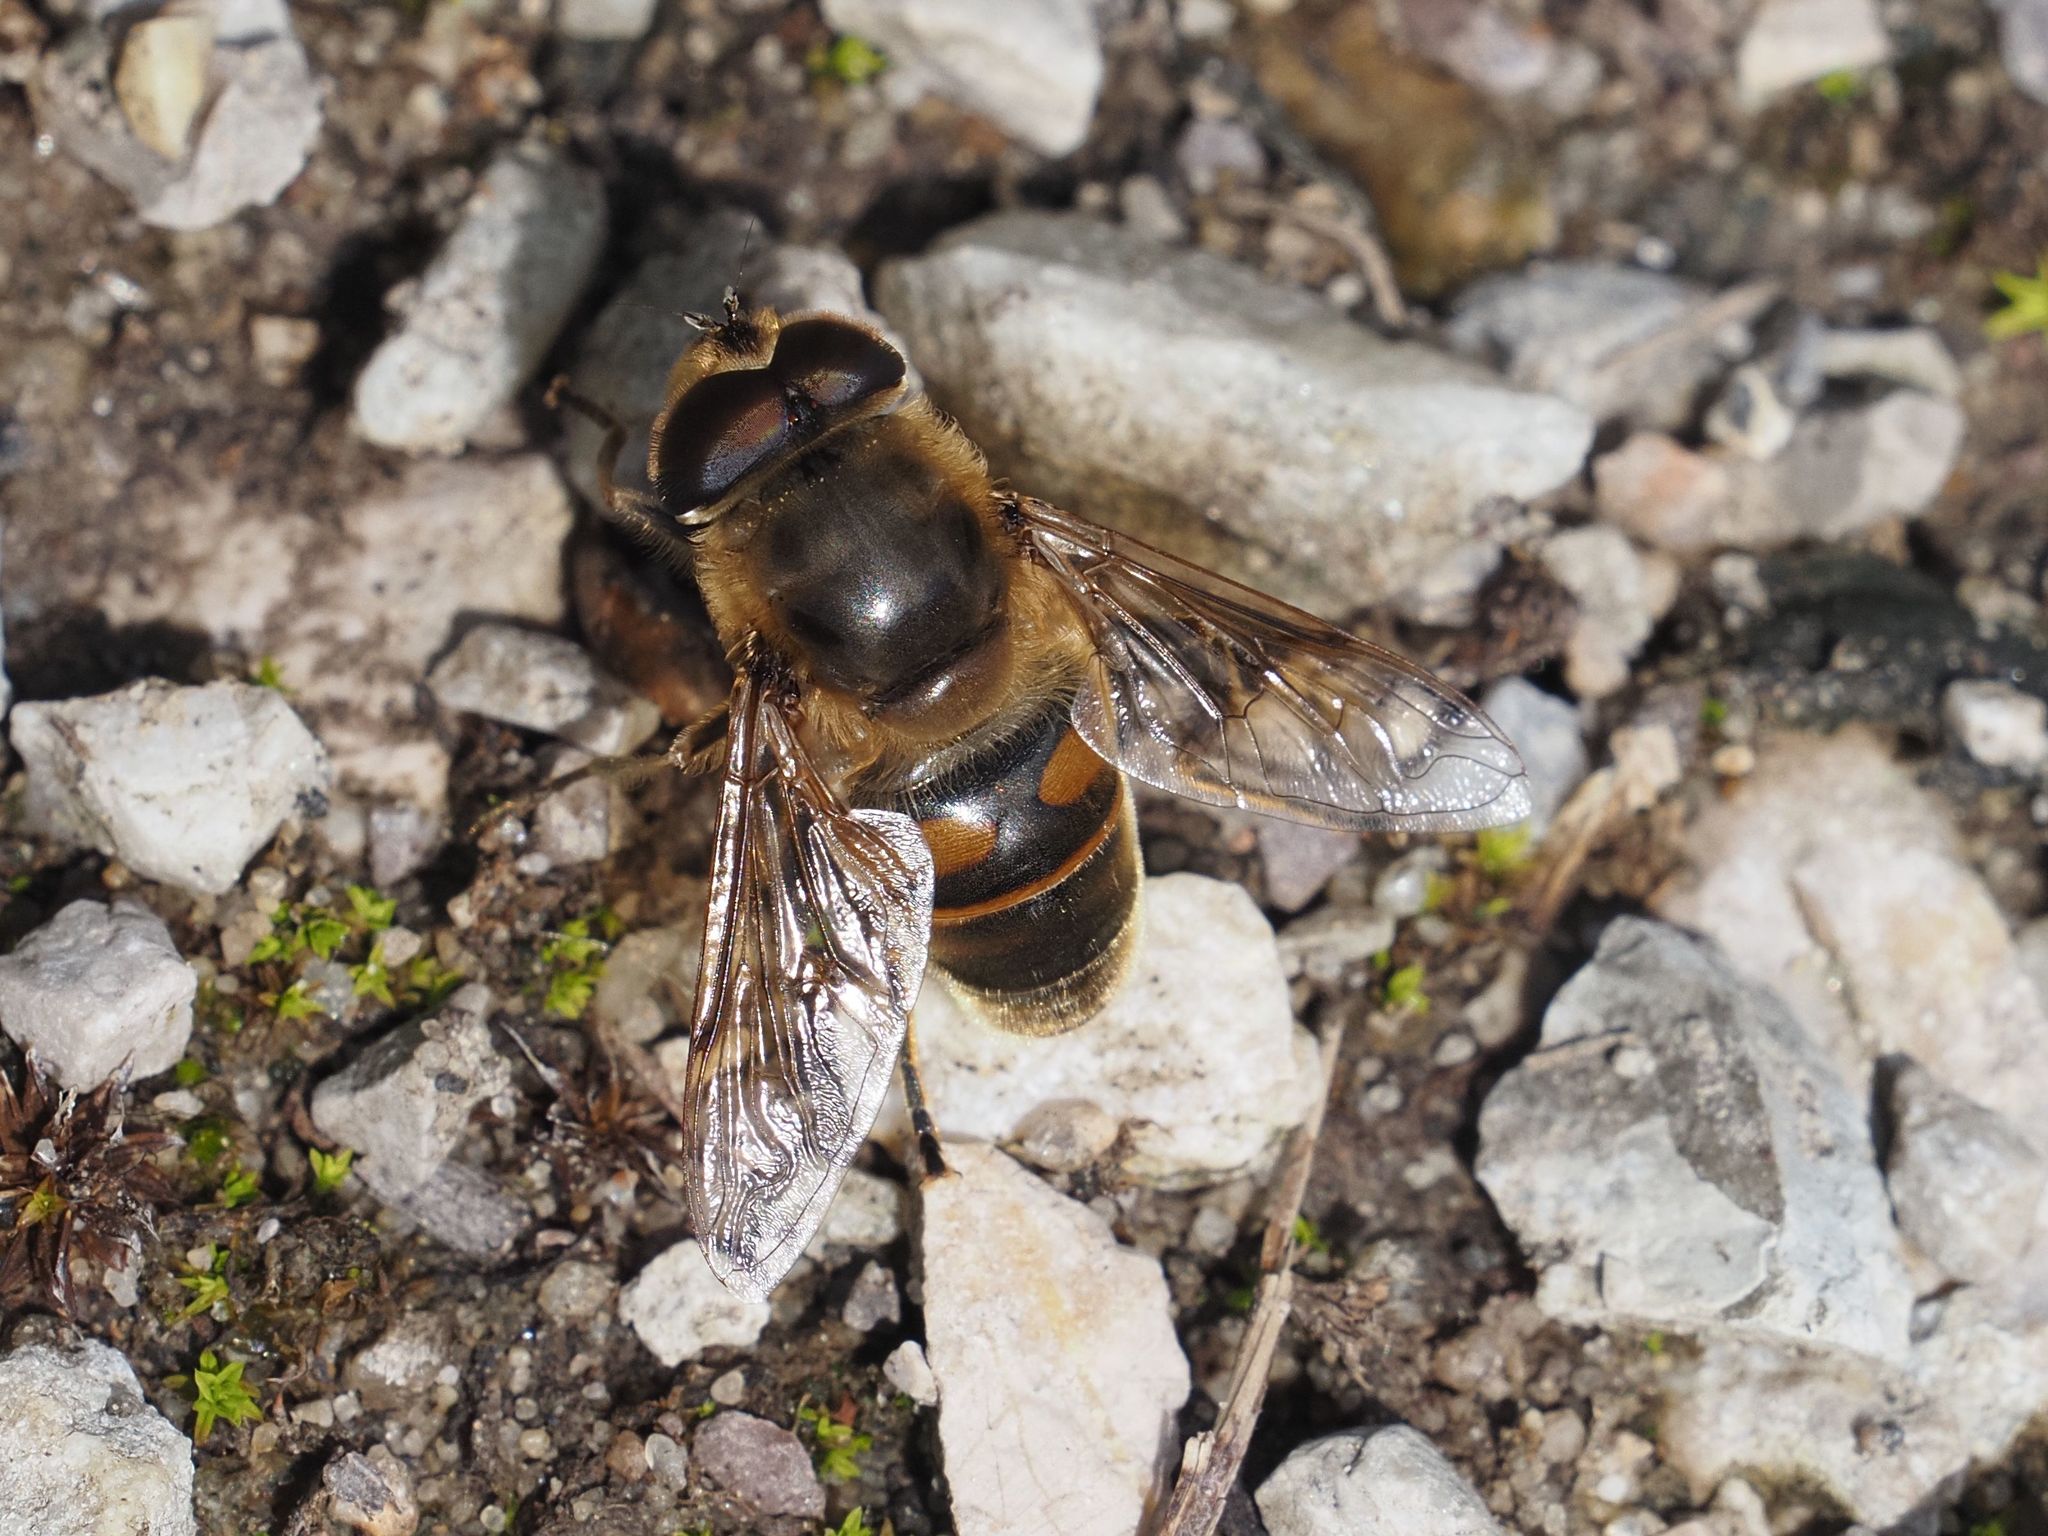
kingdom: Animalia
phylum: Arthropoda
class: Insecta
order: Diptera
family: Syrphidae
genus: Eristalis
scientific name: Eristalis tenax
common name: Drone fly
